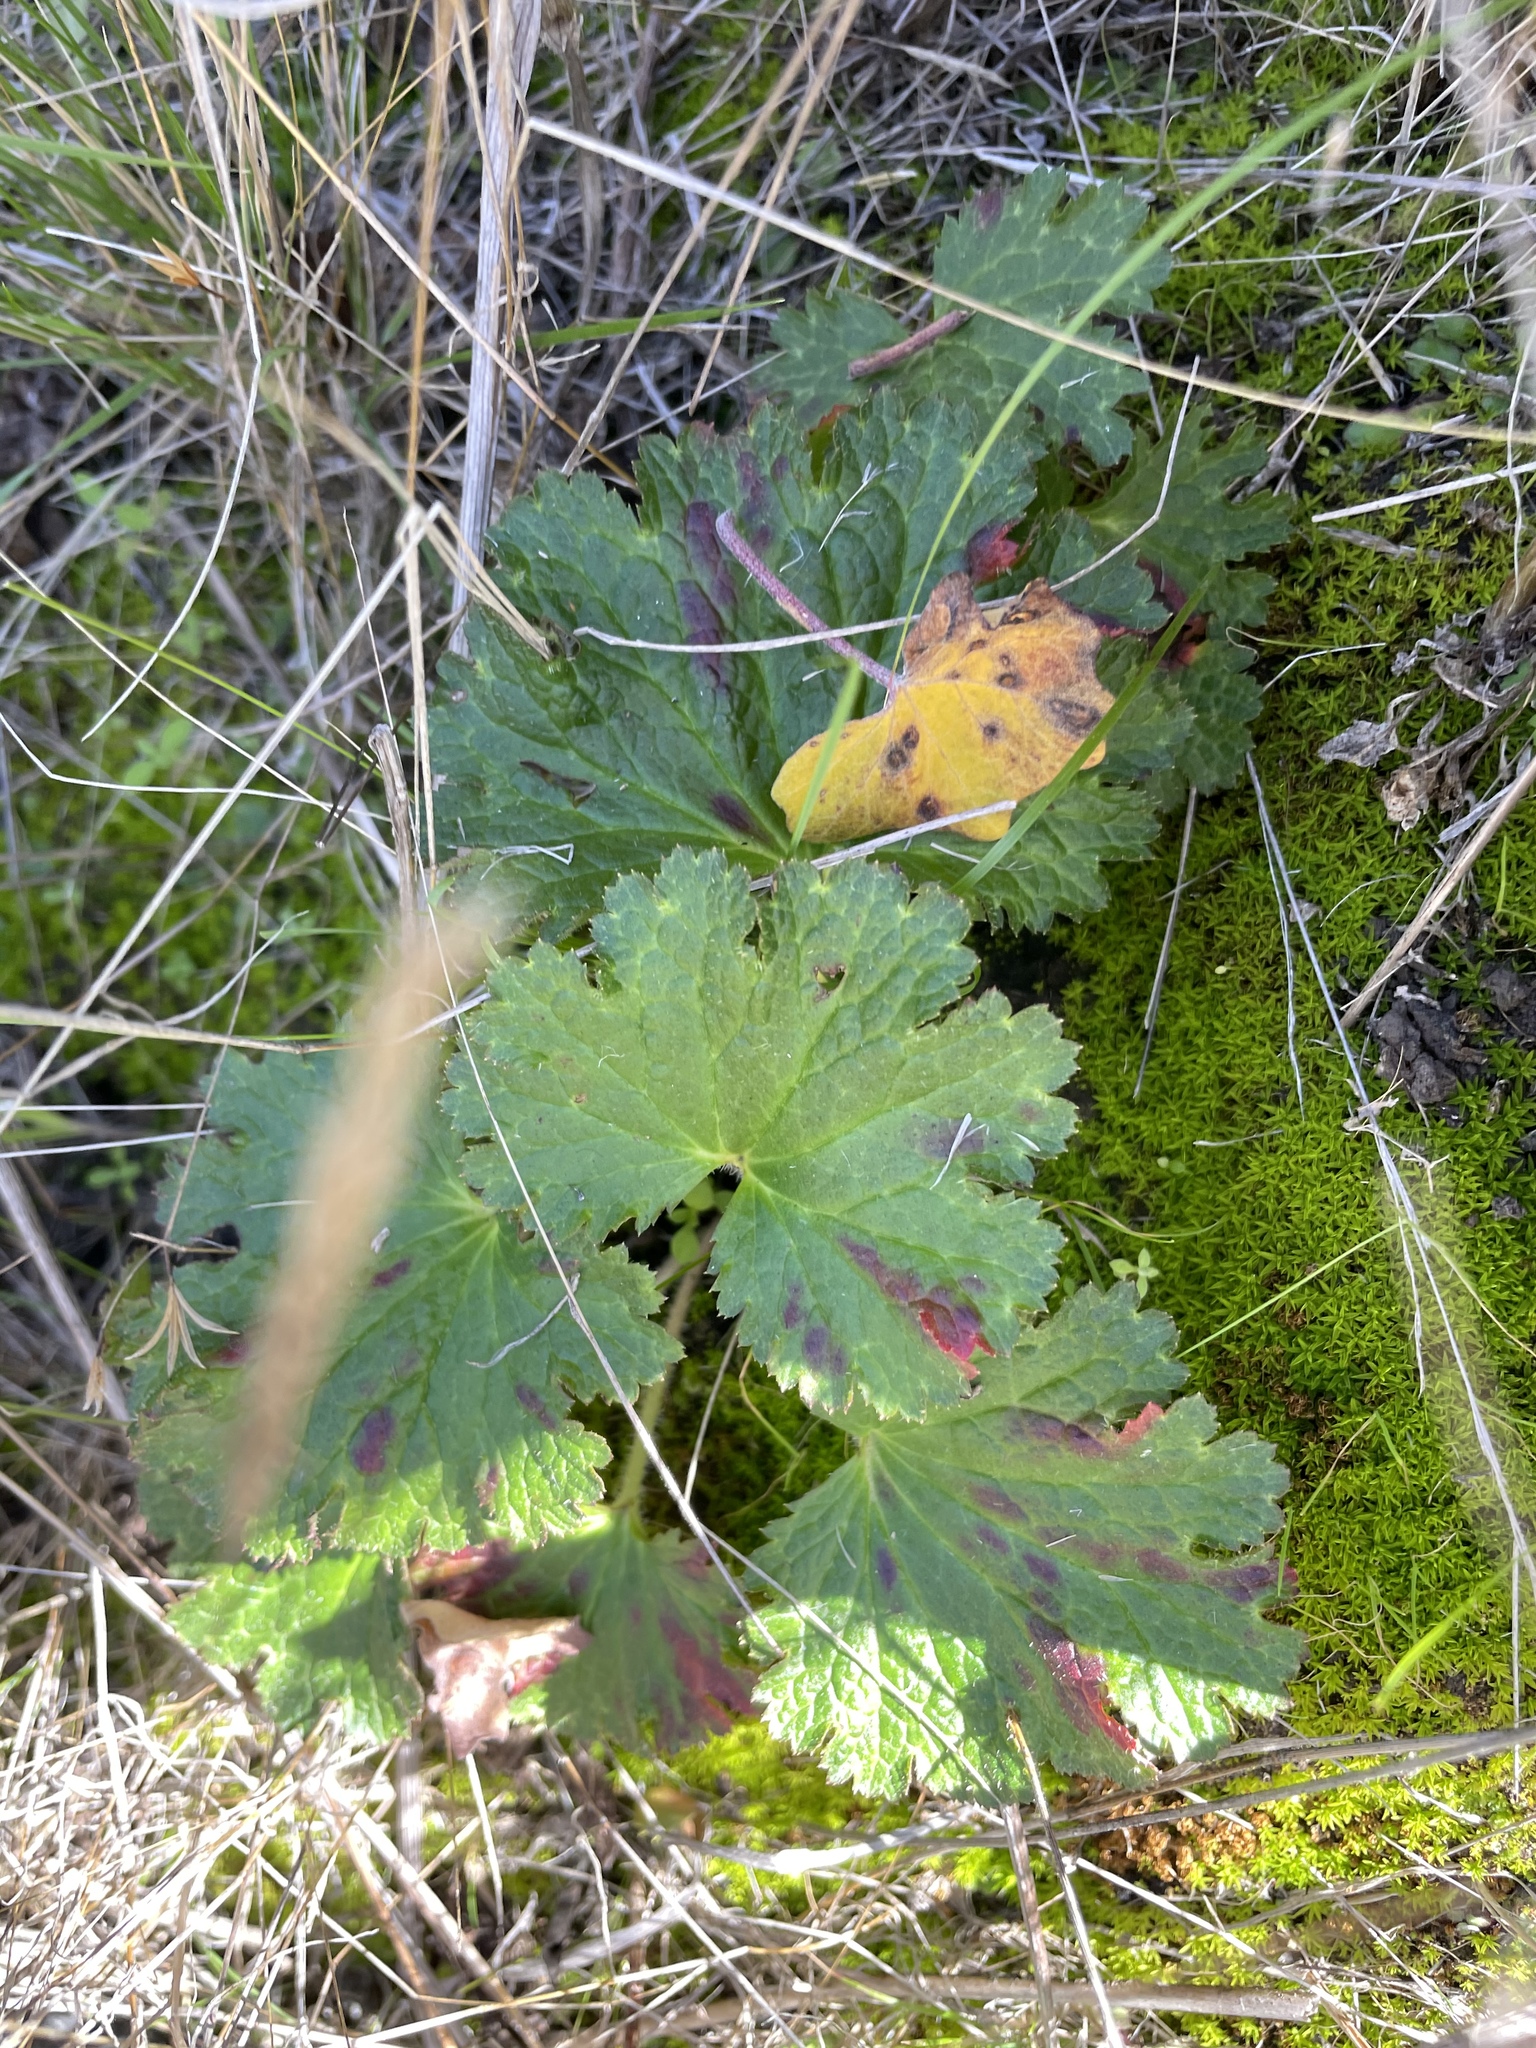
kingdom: Plantae
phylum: Tracheophyta
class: Magnoliopsida
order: Saxifragales
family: Saxifragaceae
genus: Jepsonia
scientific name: Jepsonia malvifolia
